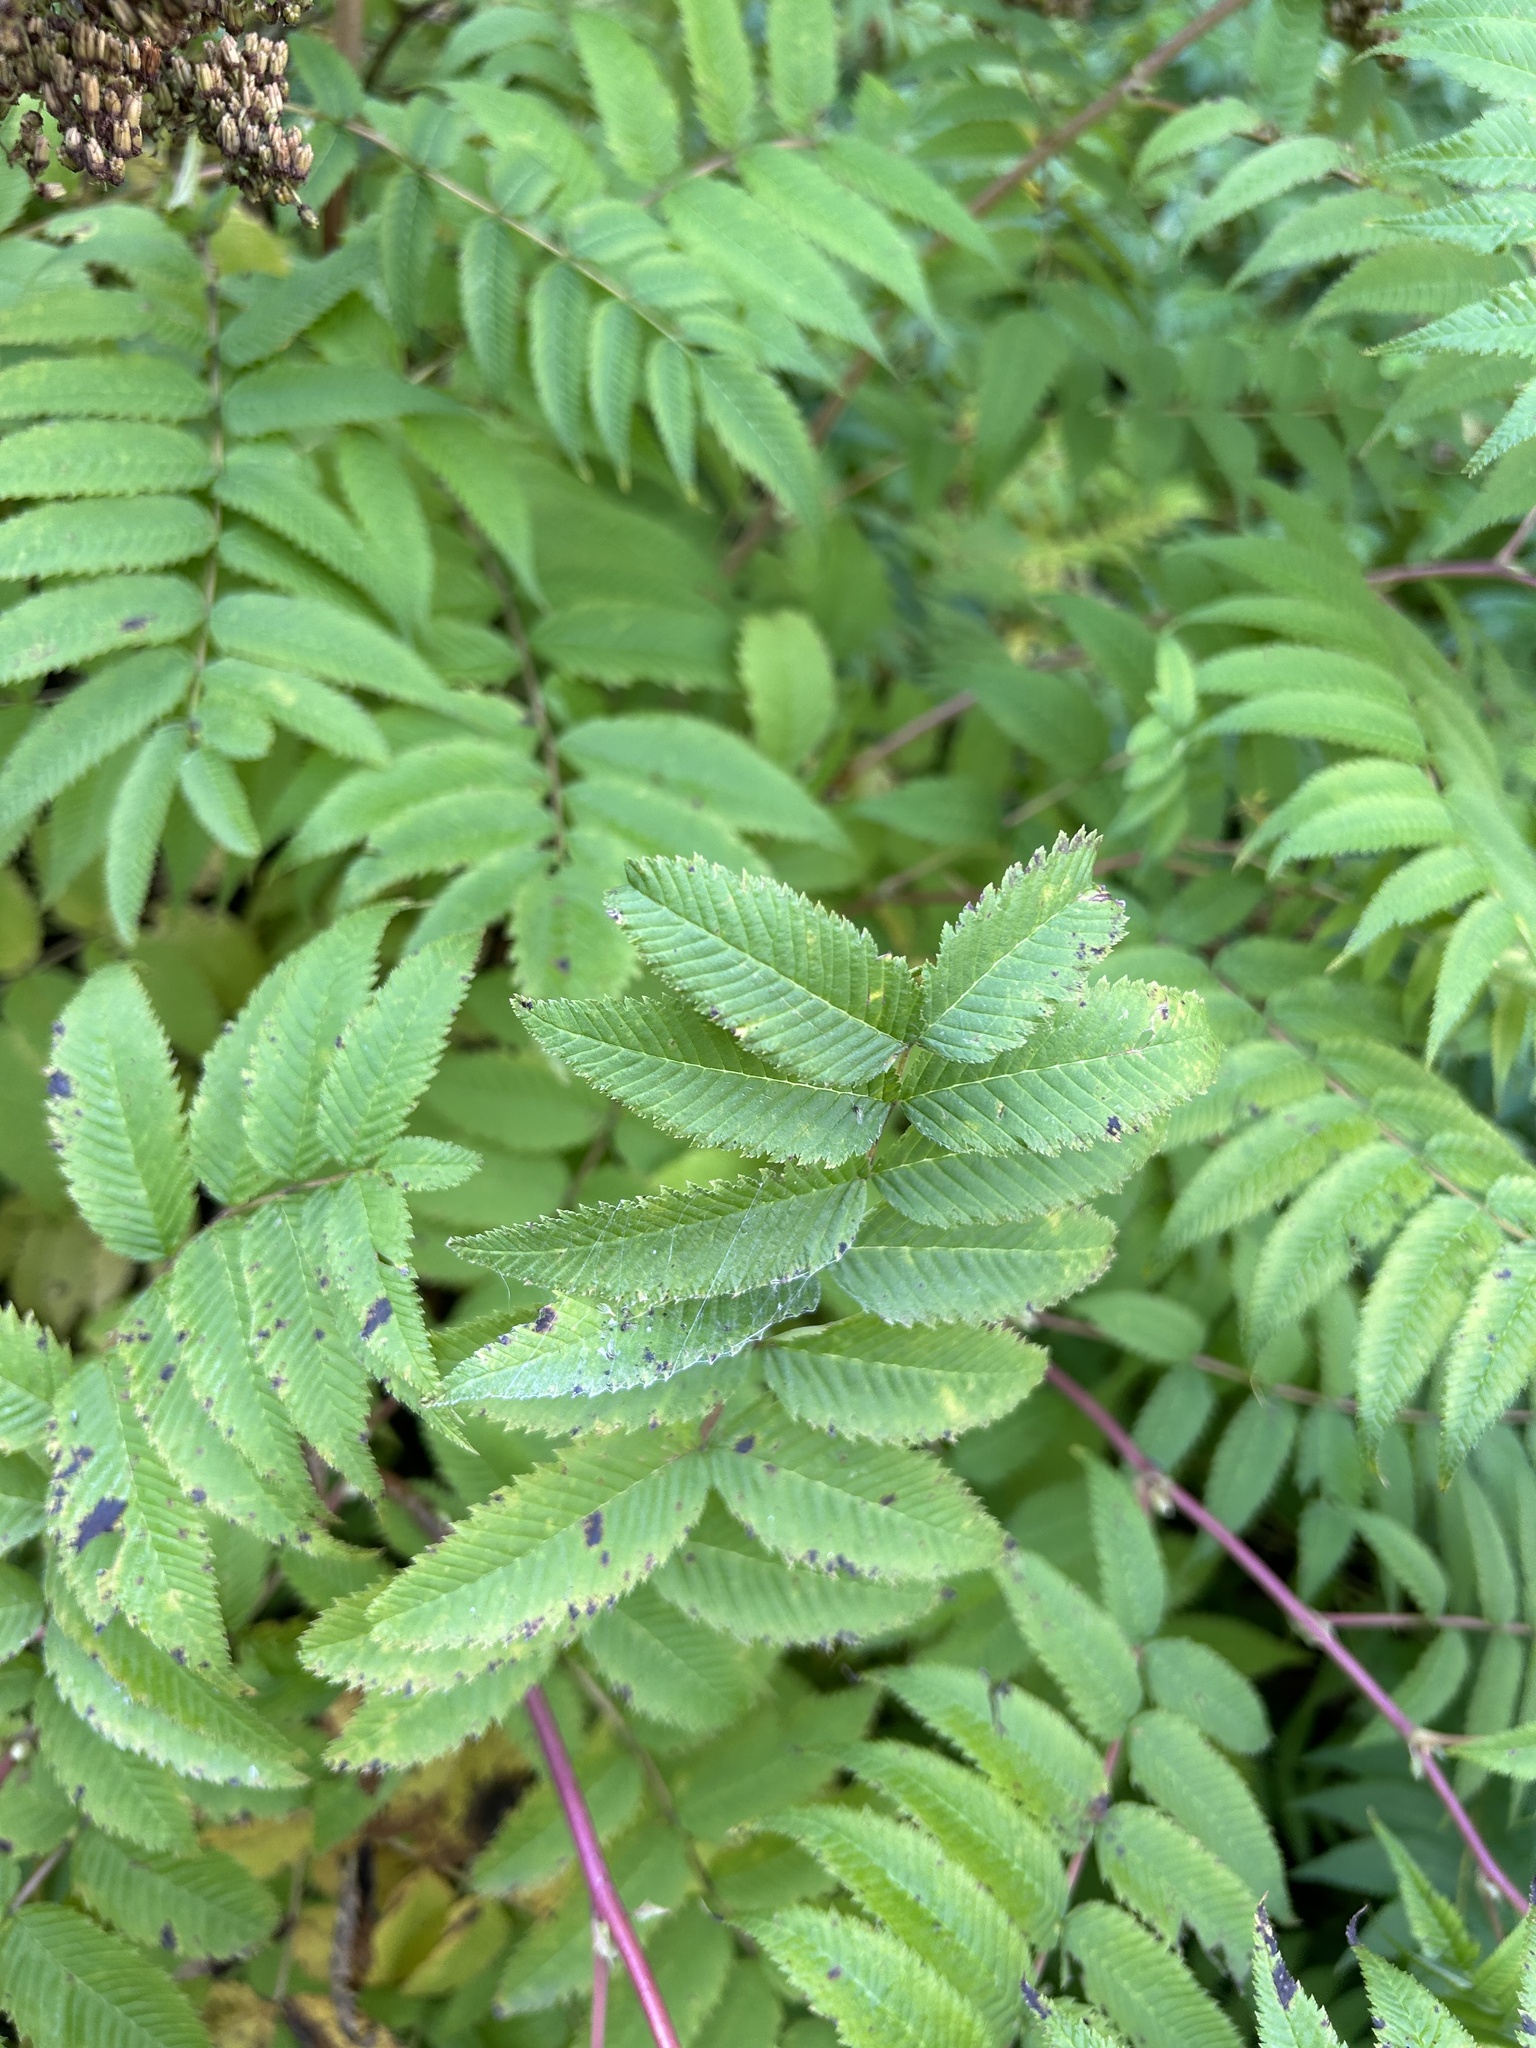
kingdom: Plantae
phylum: Tracheophyta
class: Magnoliopsida
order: Rosales
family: Rosaceae
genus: Sorbaria
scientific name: Sorbaria sorbifolia
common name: False spiraea
